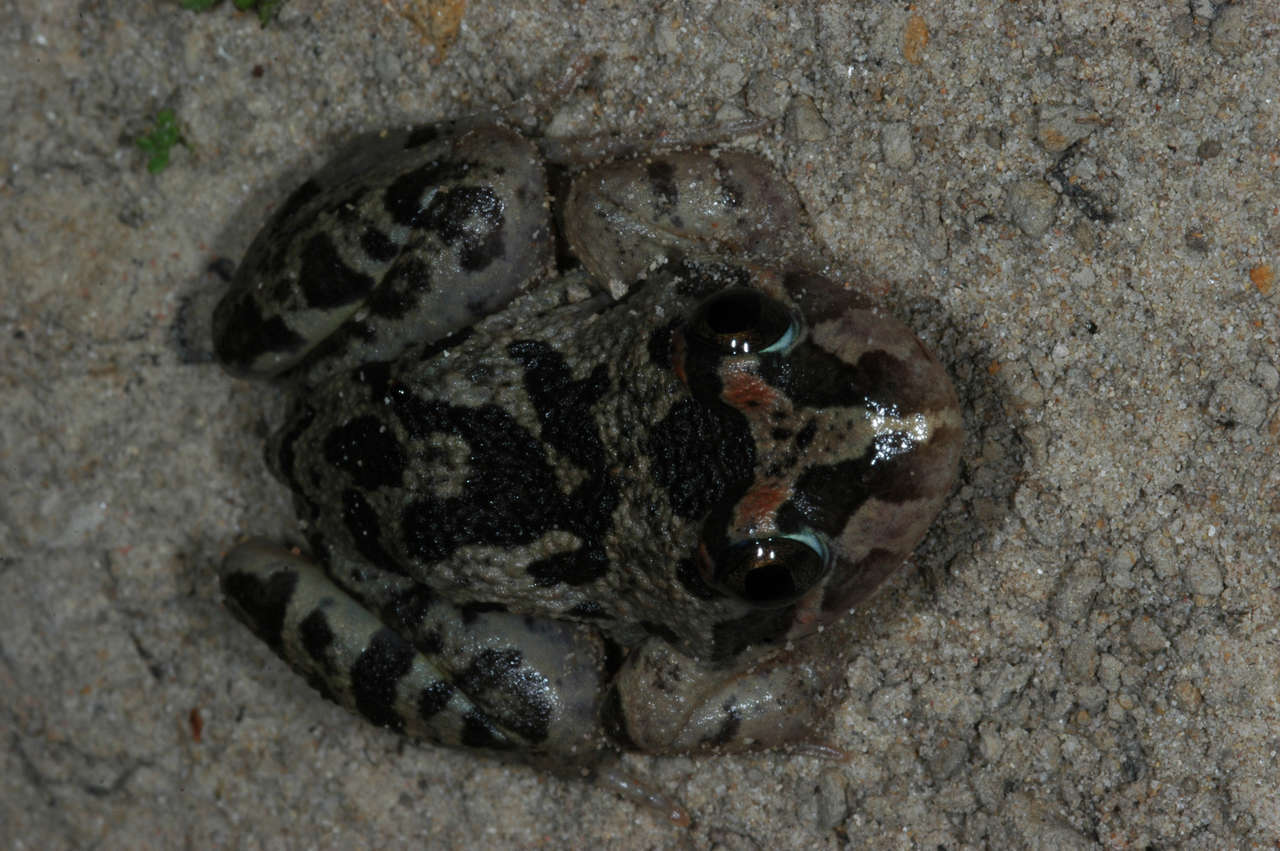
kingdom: Animalia
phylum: Chordata
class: Amphibia
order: Anura
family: Limnodynastidae
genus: Limnodynastes
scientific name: Limnodynastes fletcheri
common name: Barking frog
